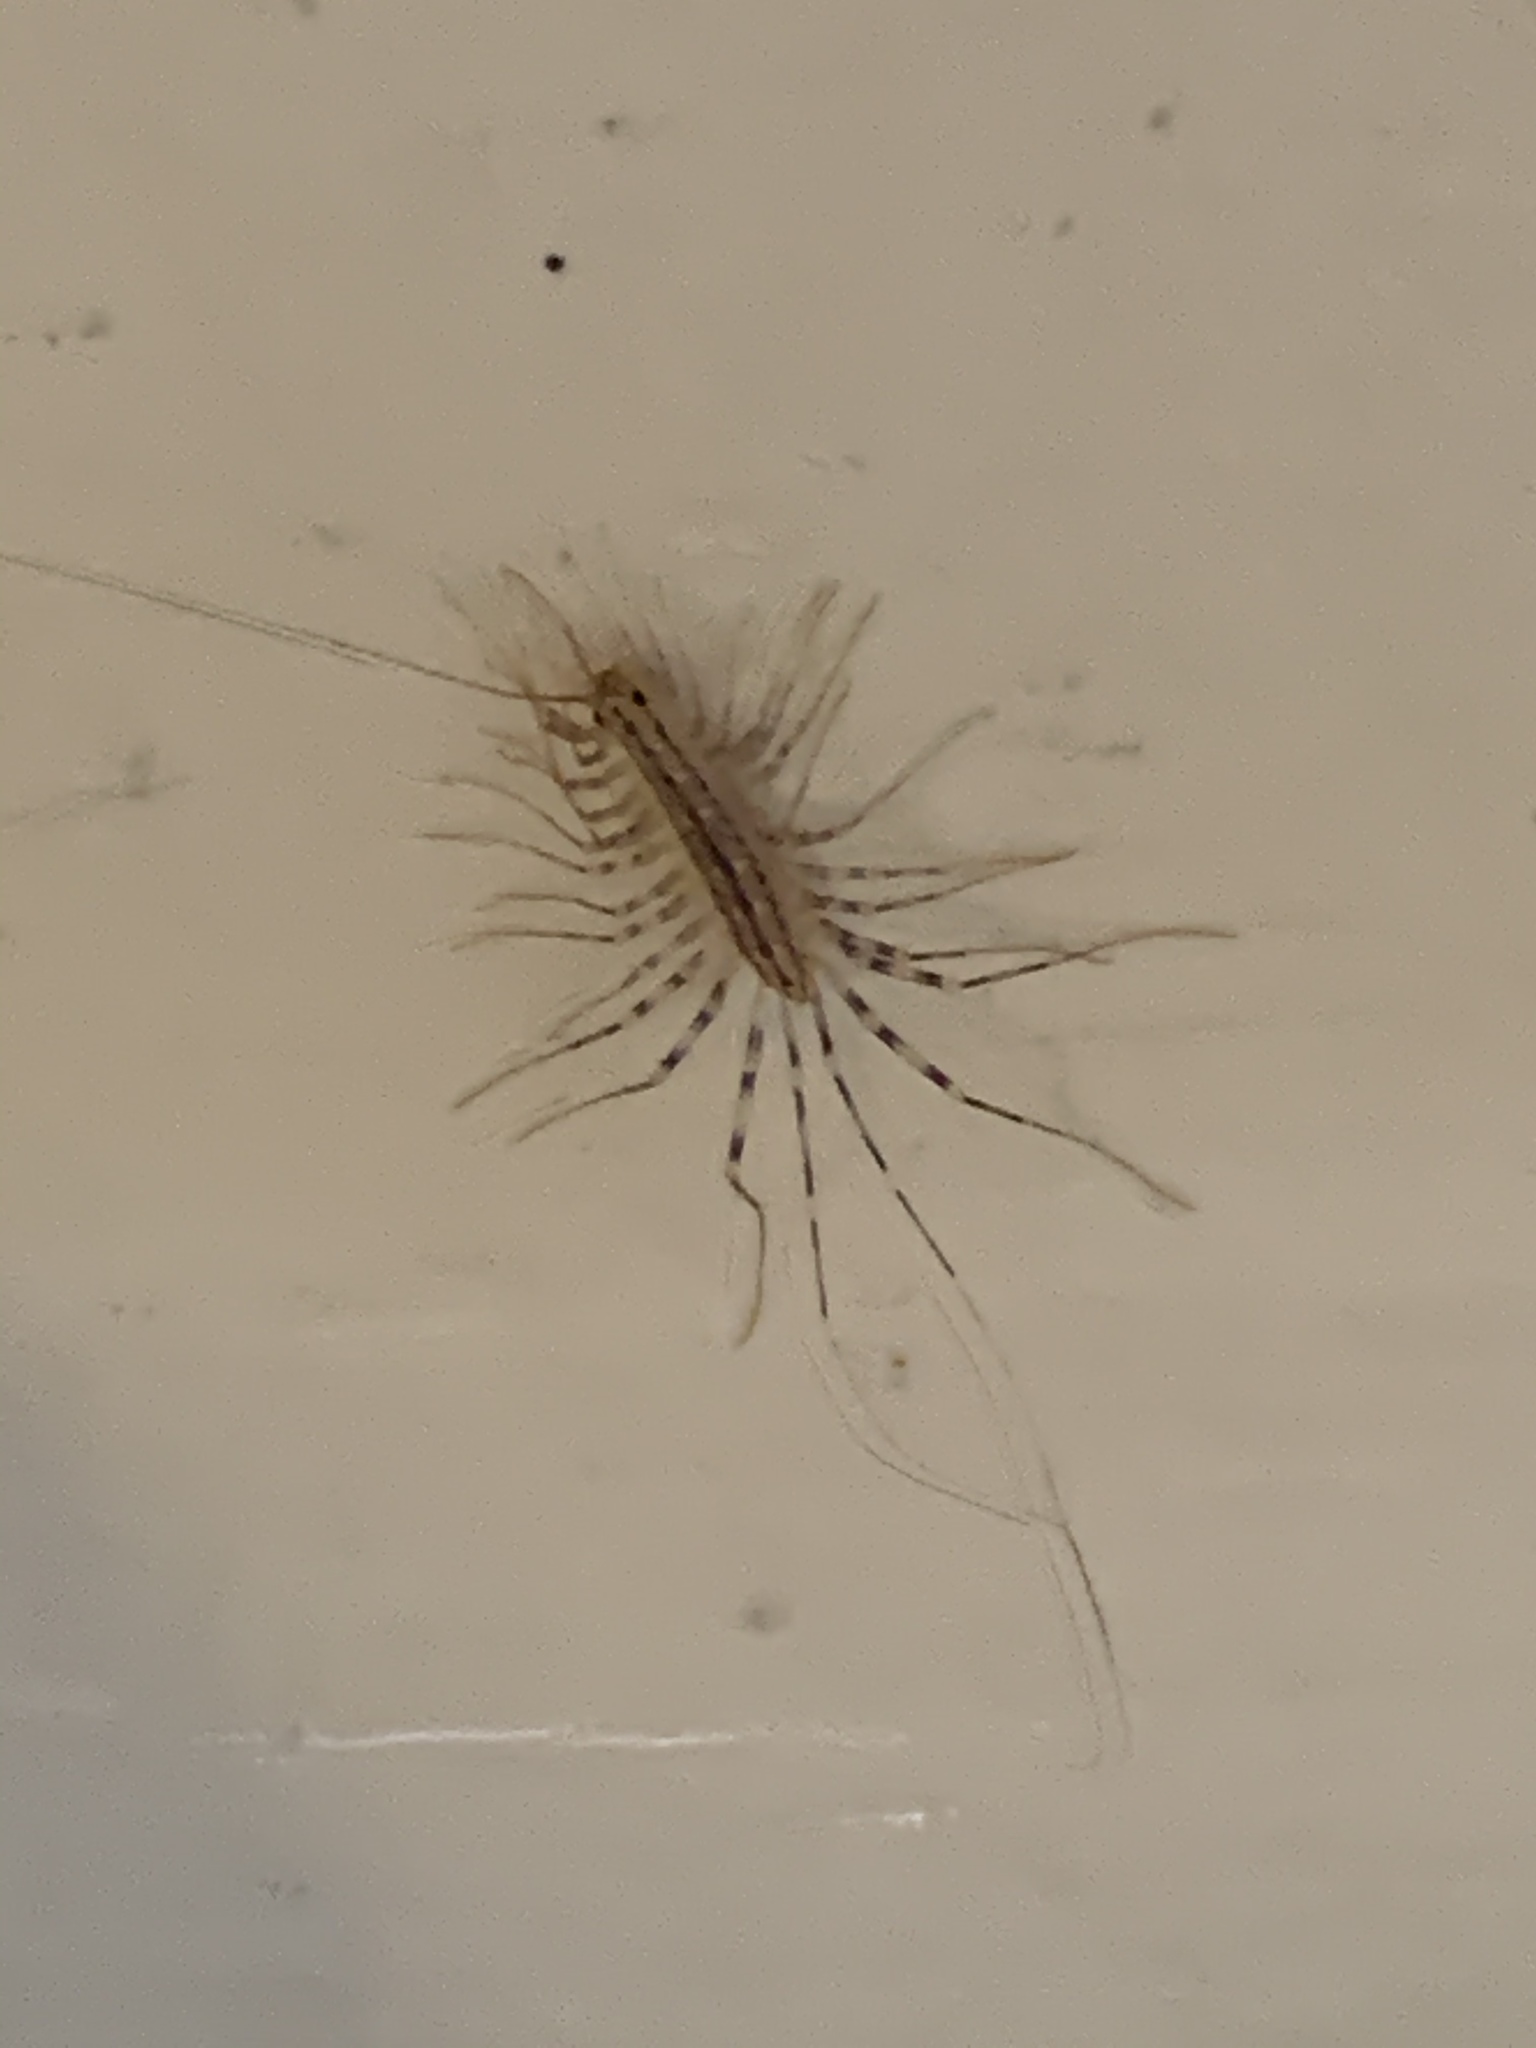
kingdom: Animalia
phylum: Arthropoda
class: Chilopoda
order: Scutigeromorpha
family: Scutigeridae
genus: Scutigera
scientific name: Scutigera coleoptrata
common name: House centipede
